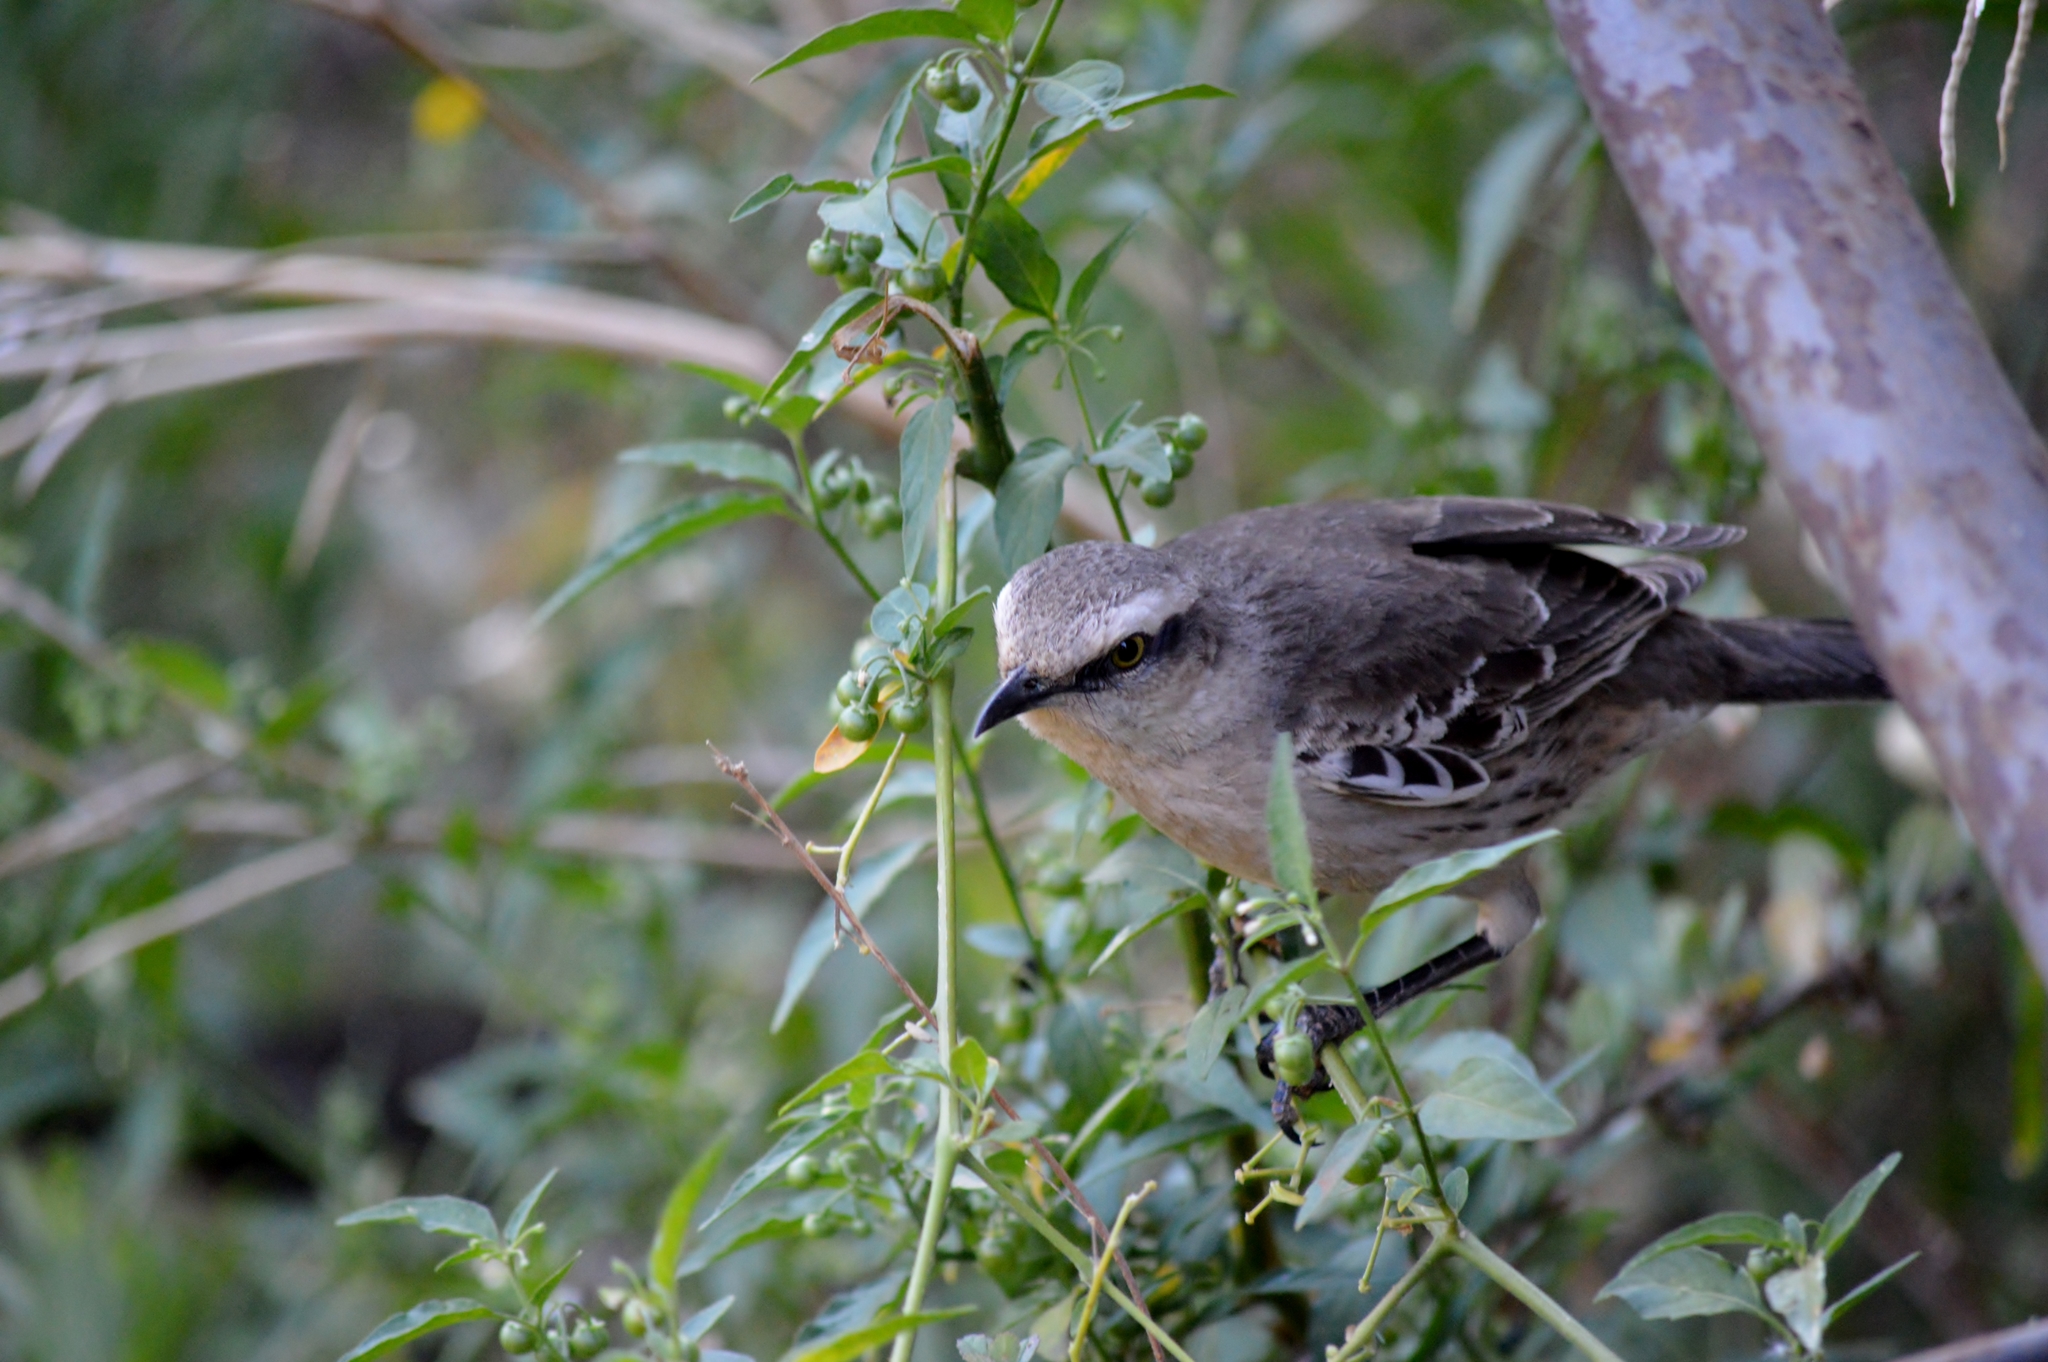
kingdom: Animalia
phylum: Chordata
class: Aves
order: Passeriformes
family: Mimidae
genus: Mimus
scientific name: Mimus saturninus
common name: Chalk-browed mockingbird
